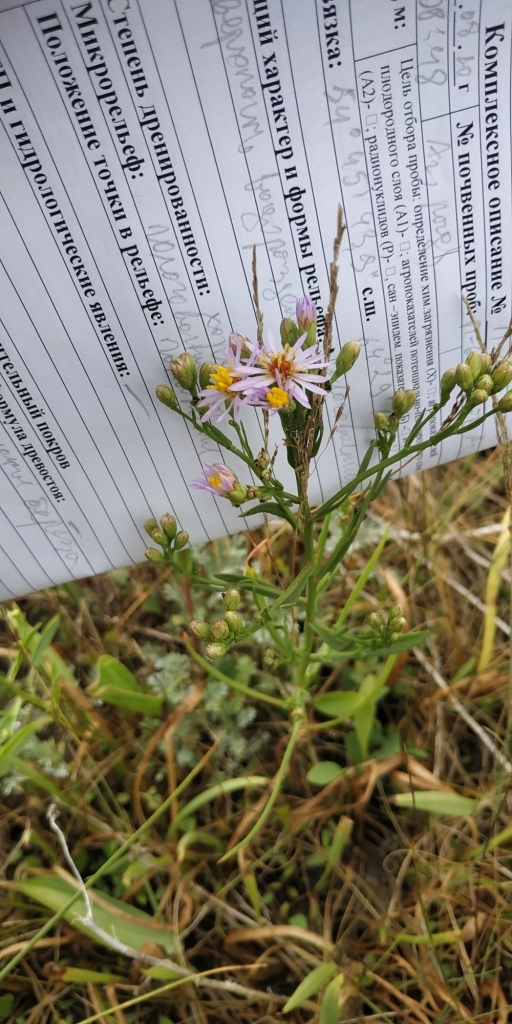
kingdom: Plantae
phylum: Tracheophyta
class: Magnoliopsida
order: Asterales
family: Asteraceae
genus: Tripolium
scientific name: Tripolium pannonicum
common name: Sea aster
